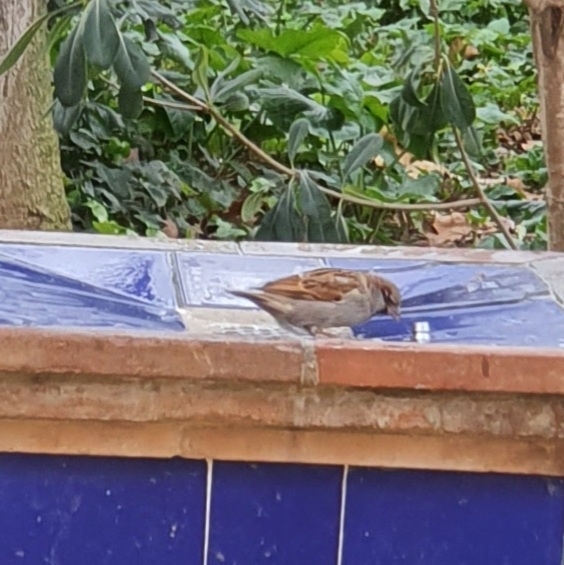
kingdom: Animalia
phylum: Chordata
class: Aves
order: Passeriformes
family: Passeridae
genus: Passer
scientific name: Passer domesticus
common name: House sparrow
